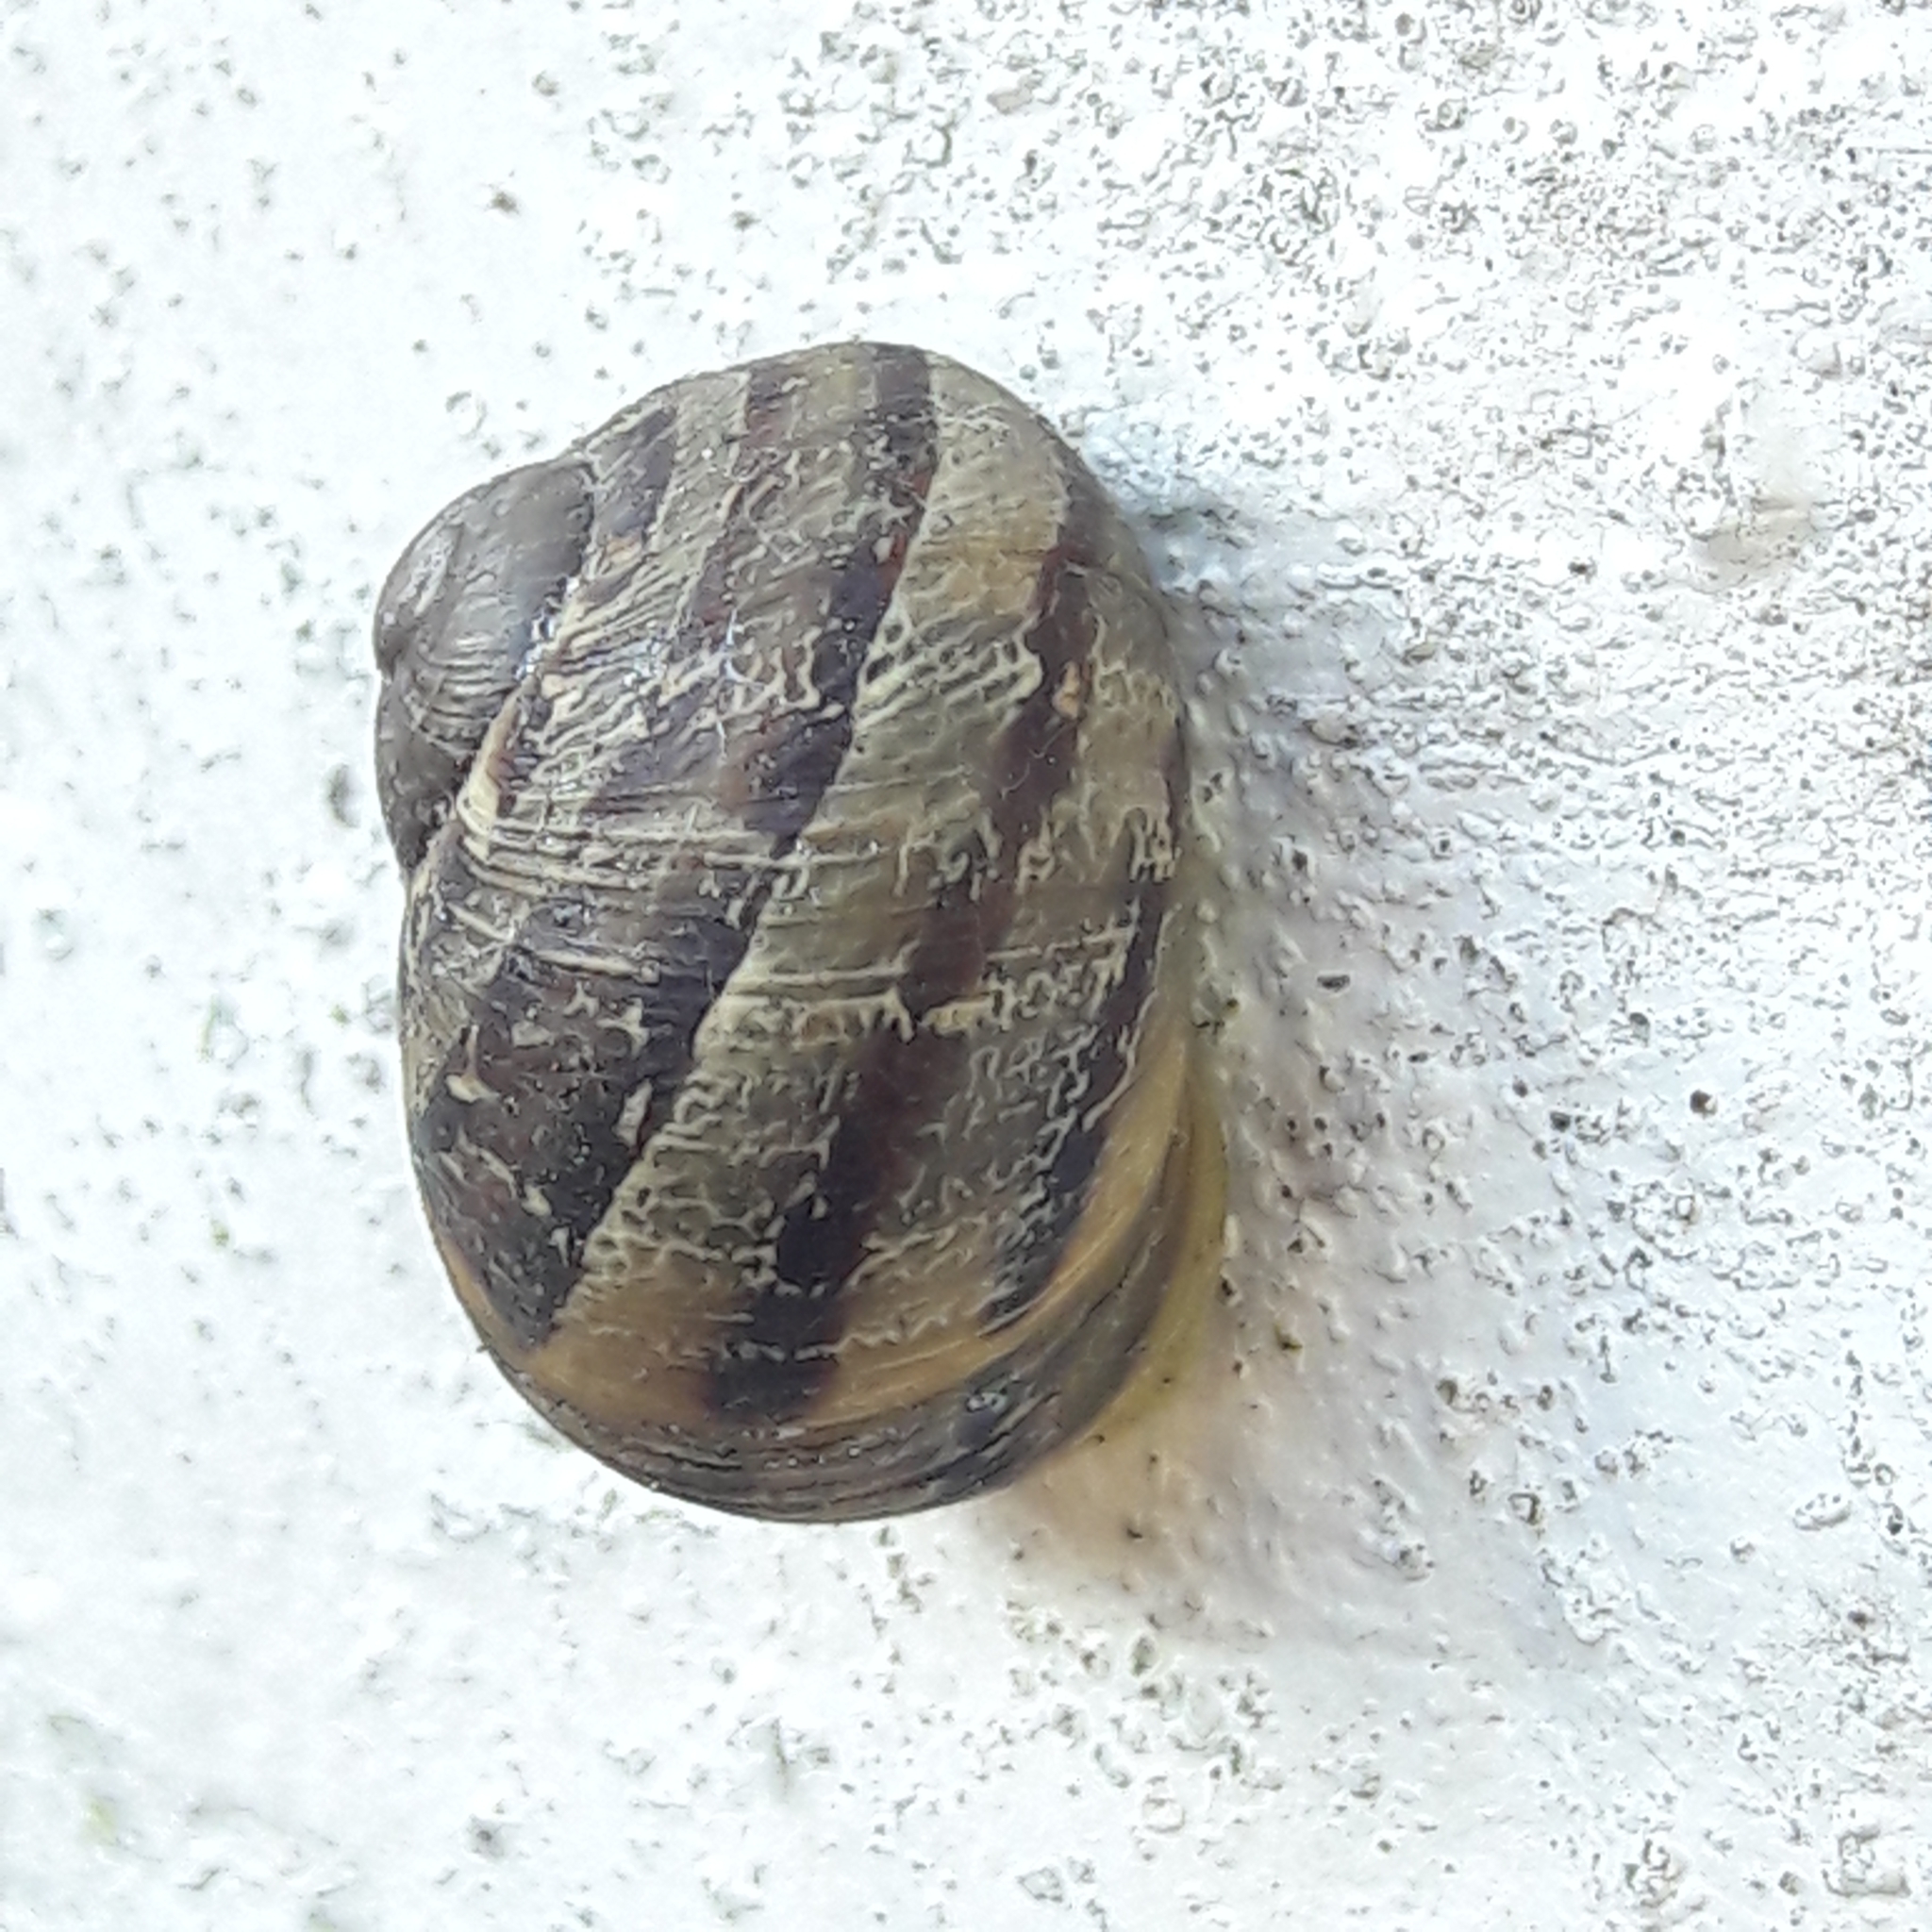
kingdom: Animalia
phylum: Mollusca
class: Gastropoda
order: Stylommatophora
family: Helicidae
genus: Cornu
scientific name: Cornu aspersum
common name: Brown garden snail
